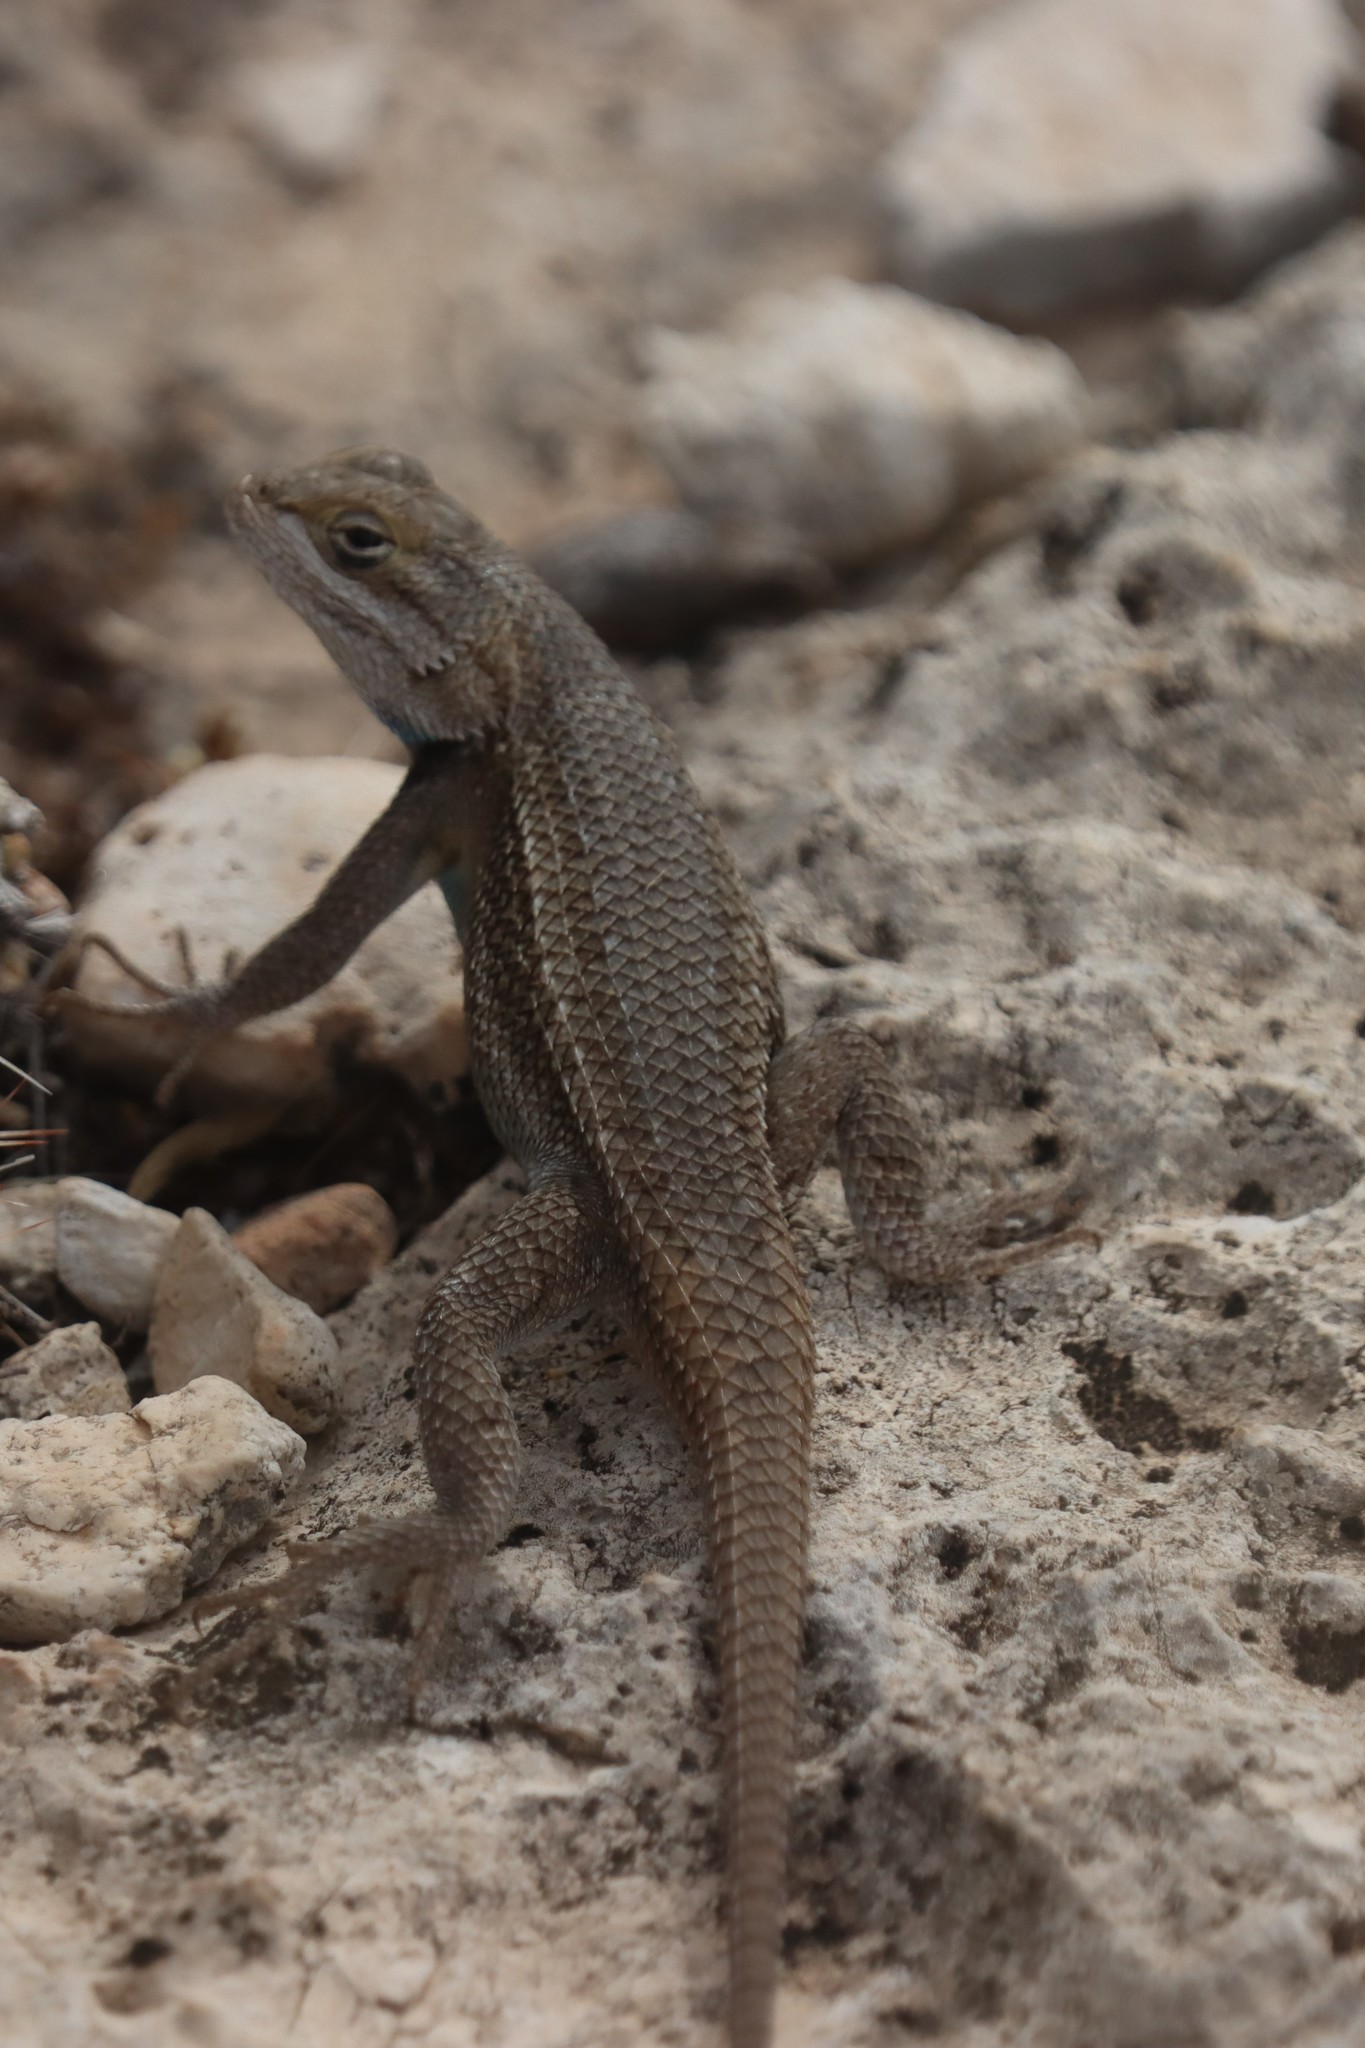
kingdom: Animalia
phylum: Chordata
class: Squamata
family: Phrynosomatidae
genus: Sceloporus
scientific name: Sceloporus cowlesi
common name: White sands prairie lizard
